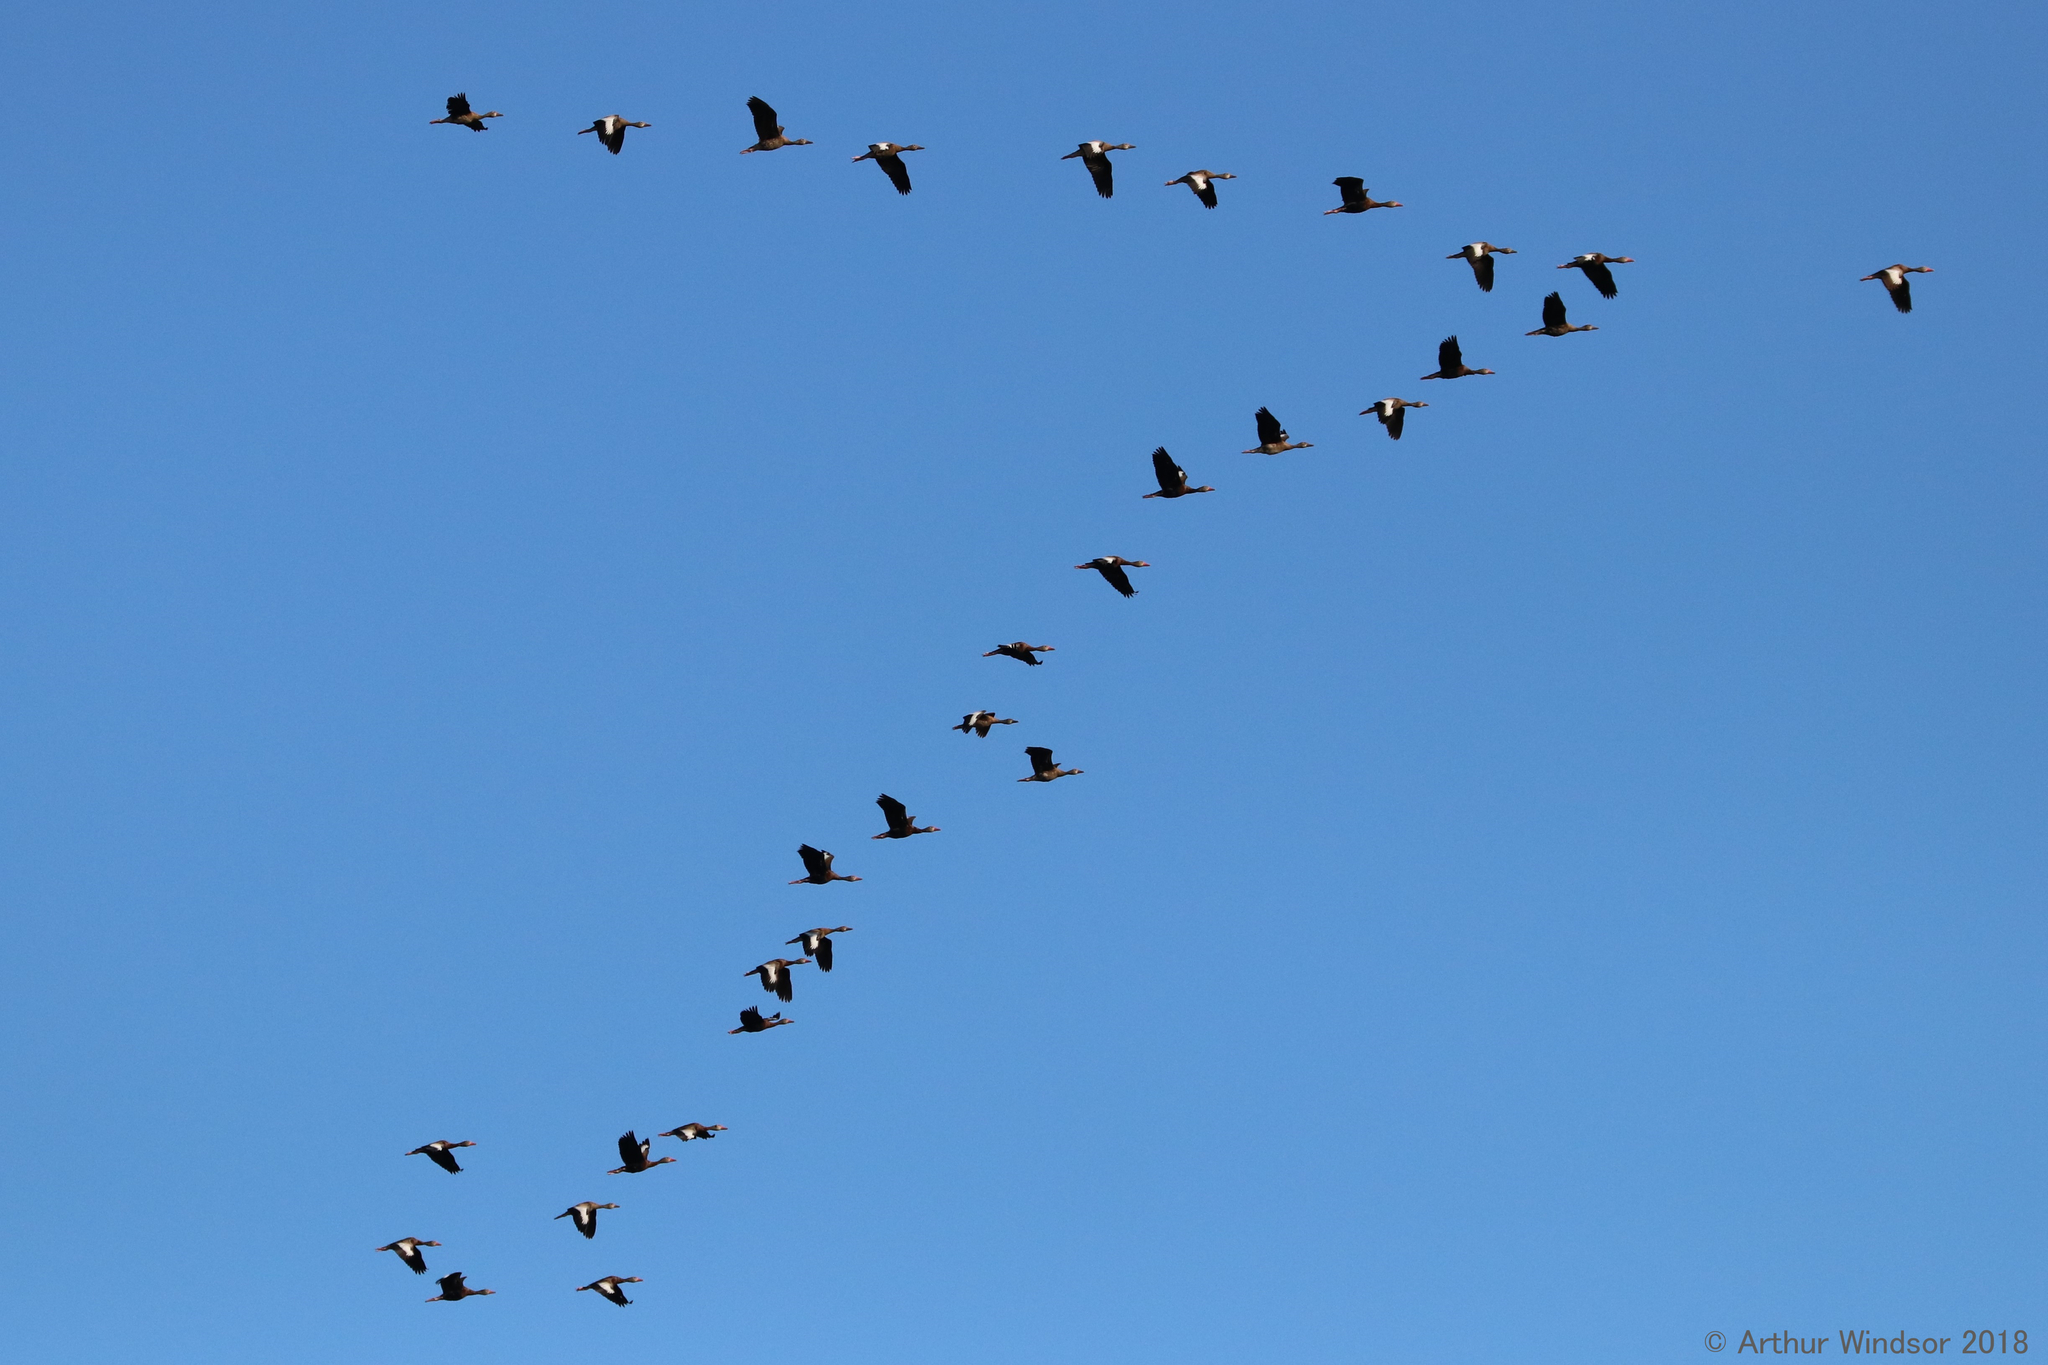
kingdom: Animalia
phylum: Chordata
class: Aves
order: Anseriformes
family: Anatidae
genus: Dendrocygna
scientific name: Dendrocygna autumnalis
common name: Black-bellied whistling duck
